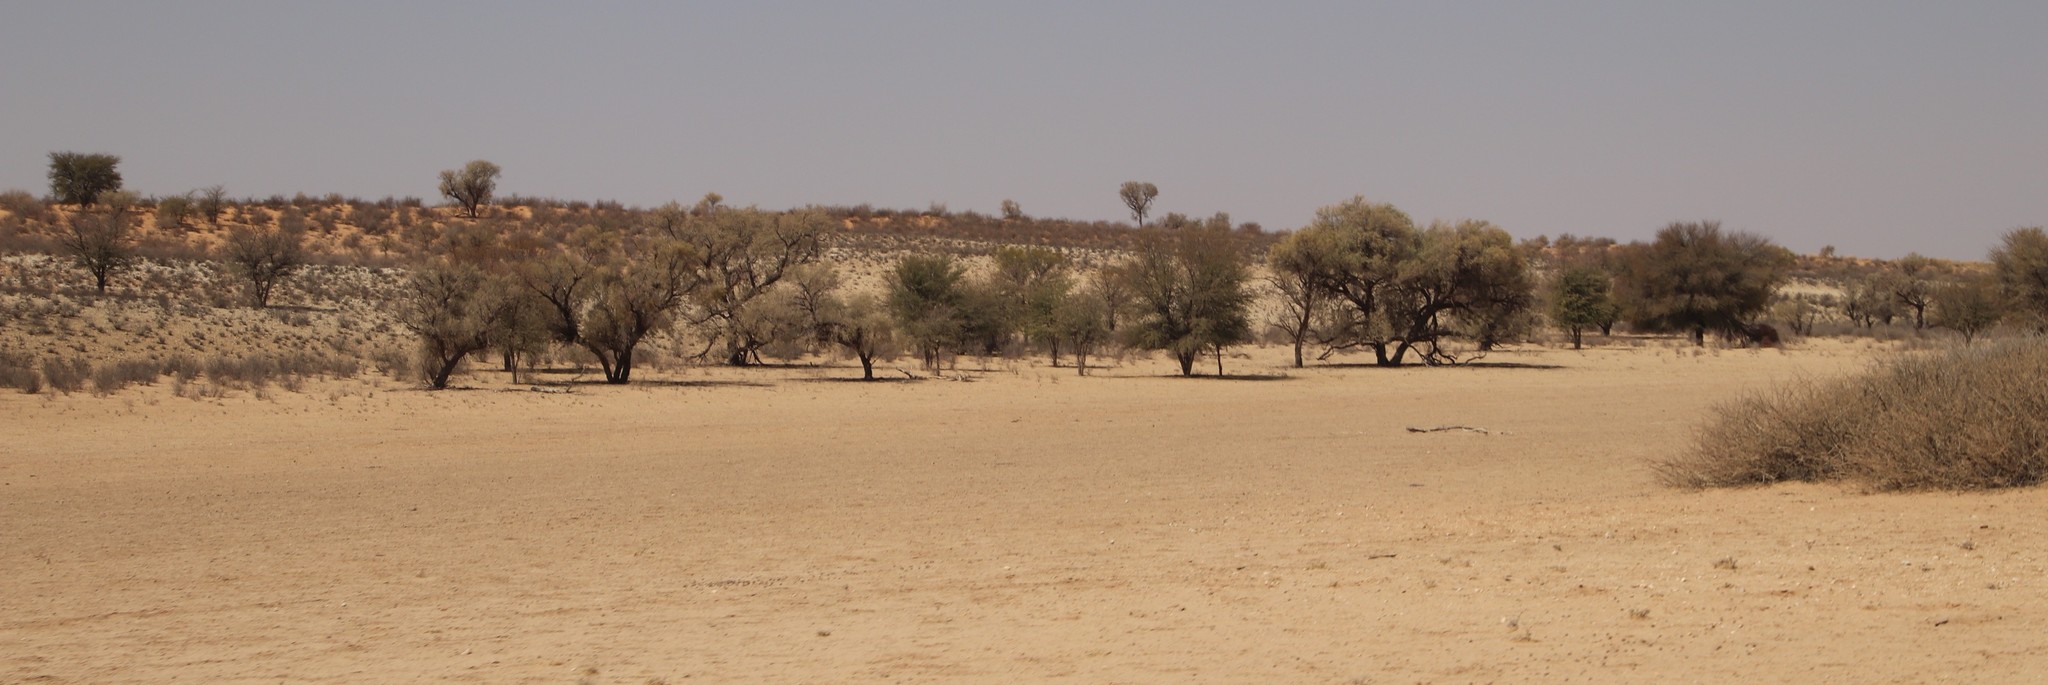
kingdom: Plantae
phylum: Tracheophyta
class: Magnoliopsida
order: Fabales
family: Fabaceae
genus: Vachellia
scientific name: Vachellia erioloba
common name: Camel thorn
